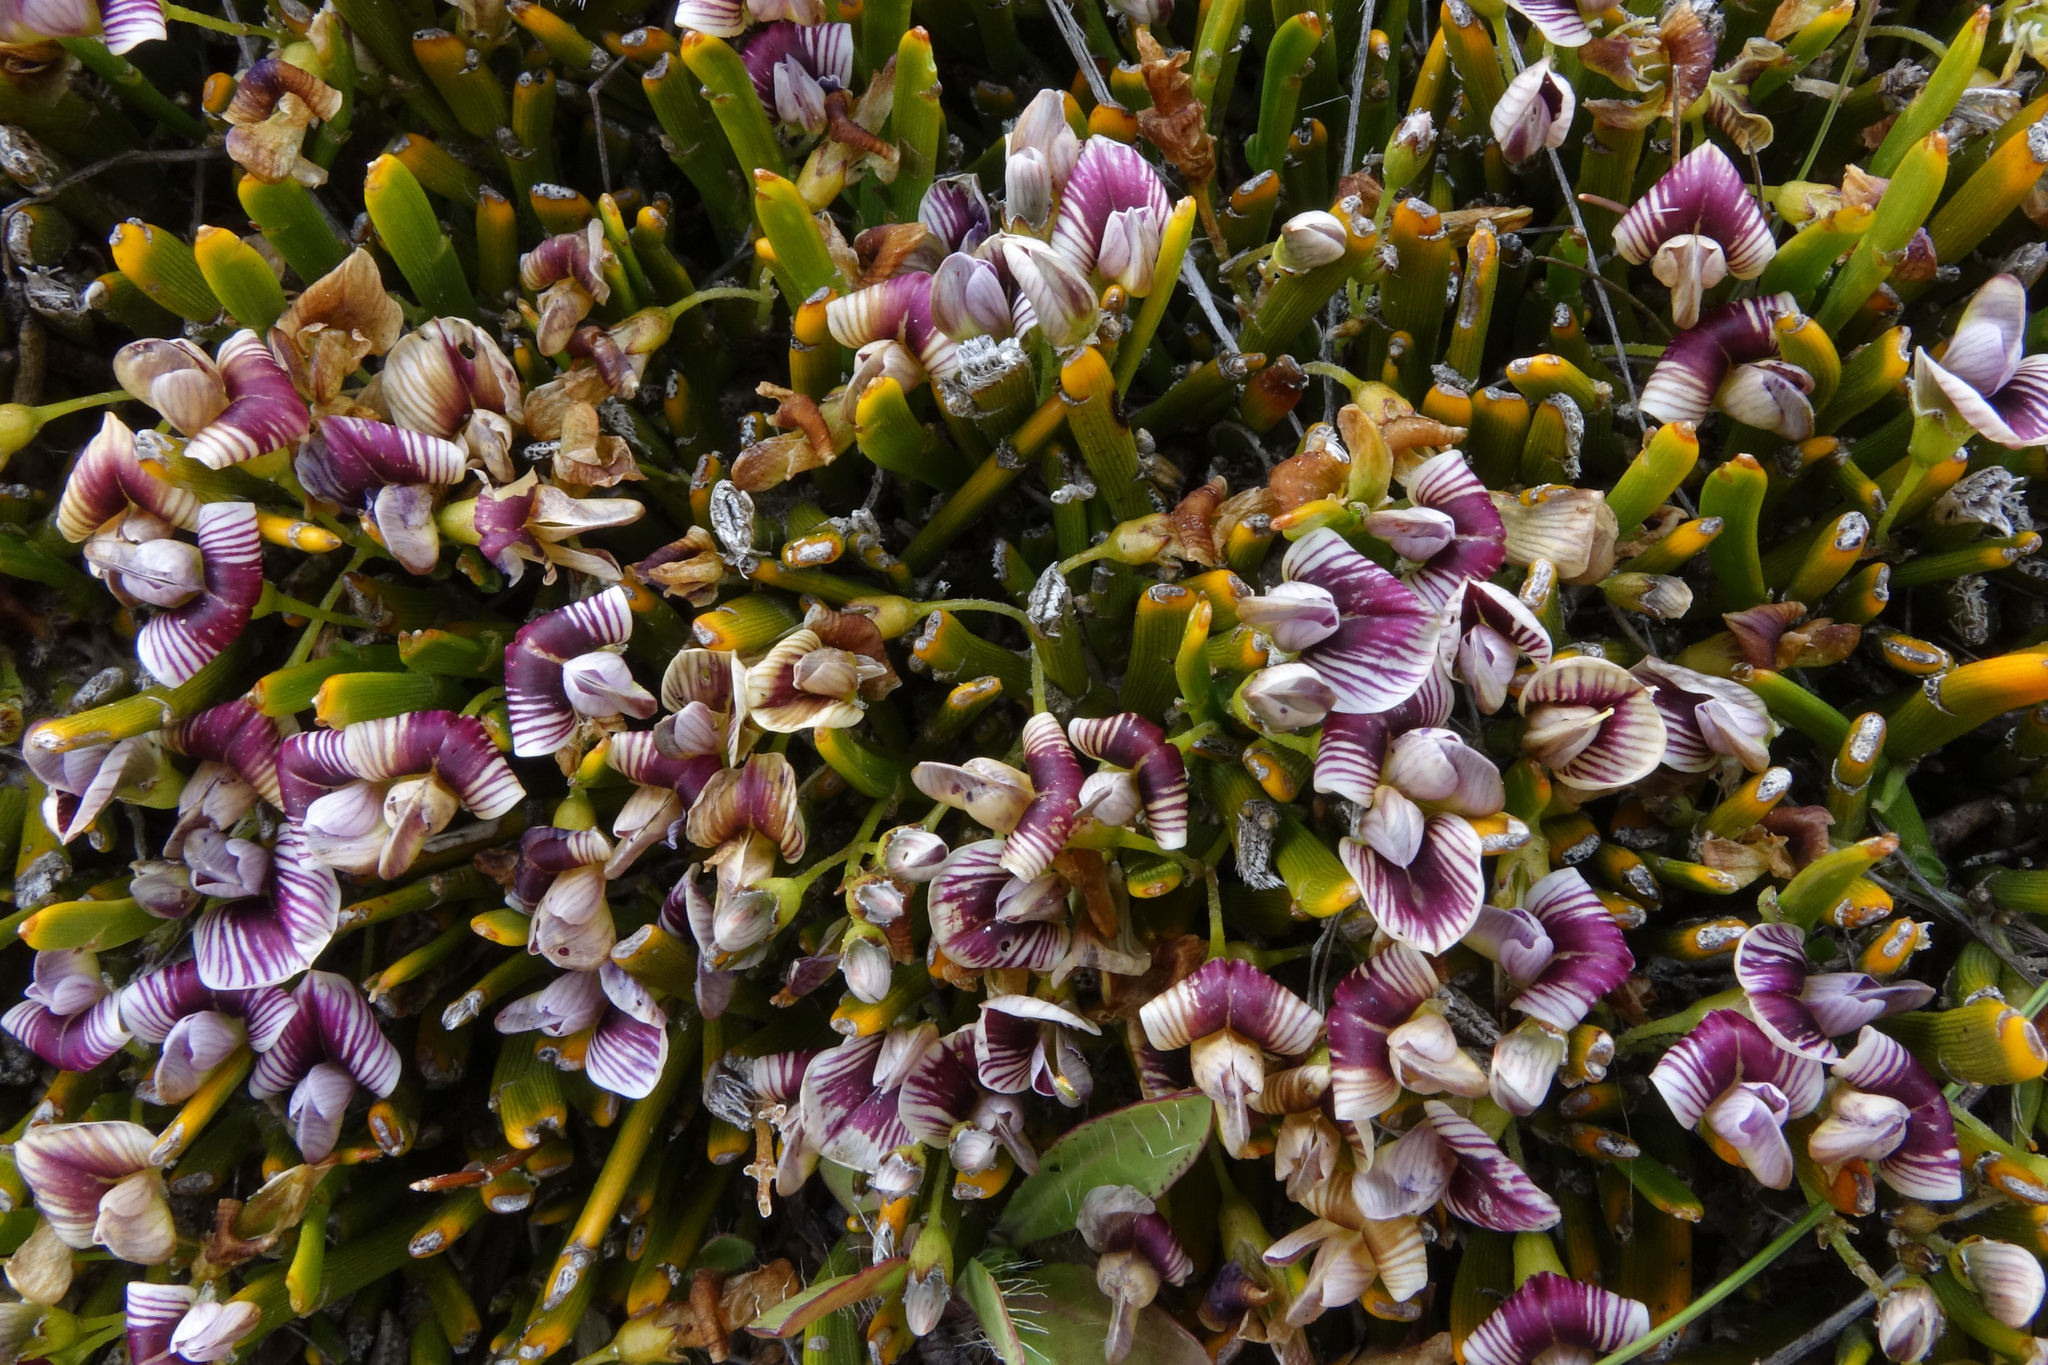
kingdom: Plantae
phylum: Tracheophyta
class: Magnoliopsida
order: Fabales
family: Fabaceae
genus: Carmichaelia
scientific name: Carmichaelia vexillata
